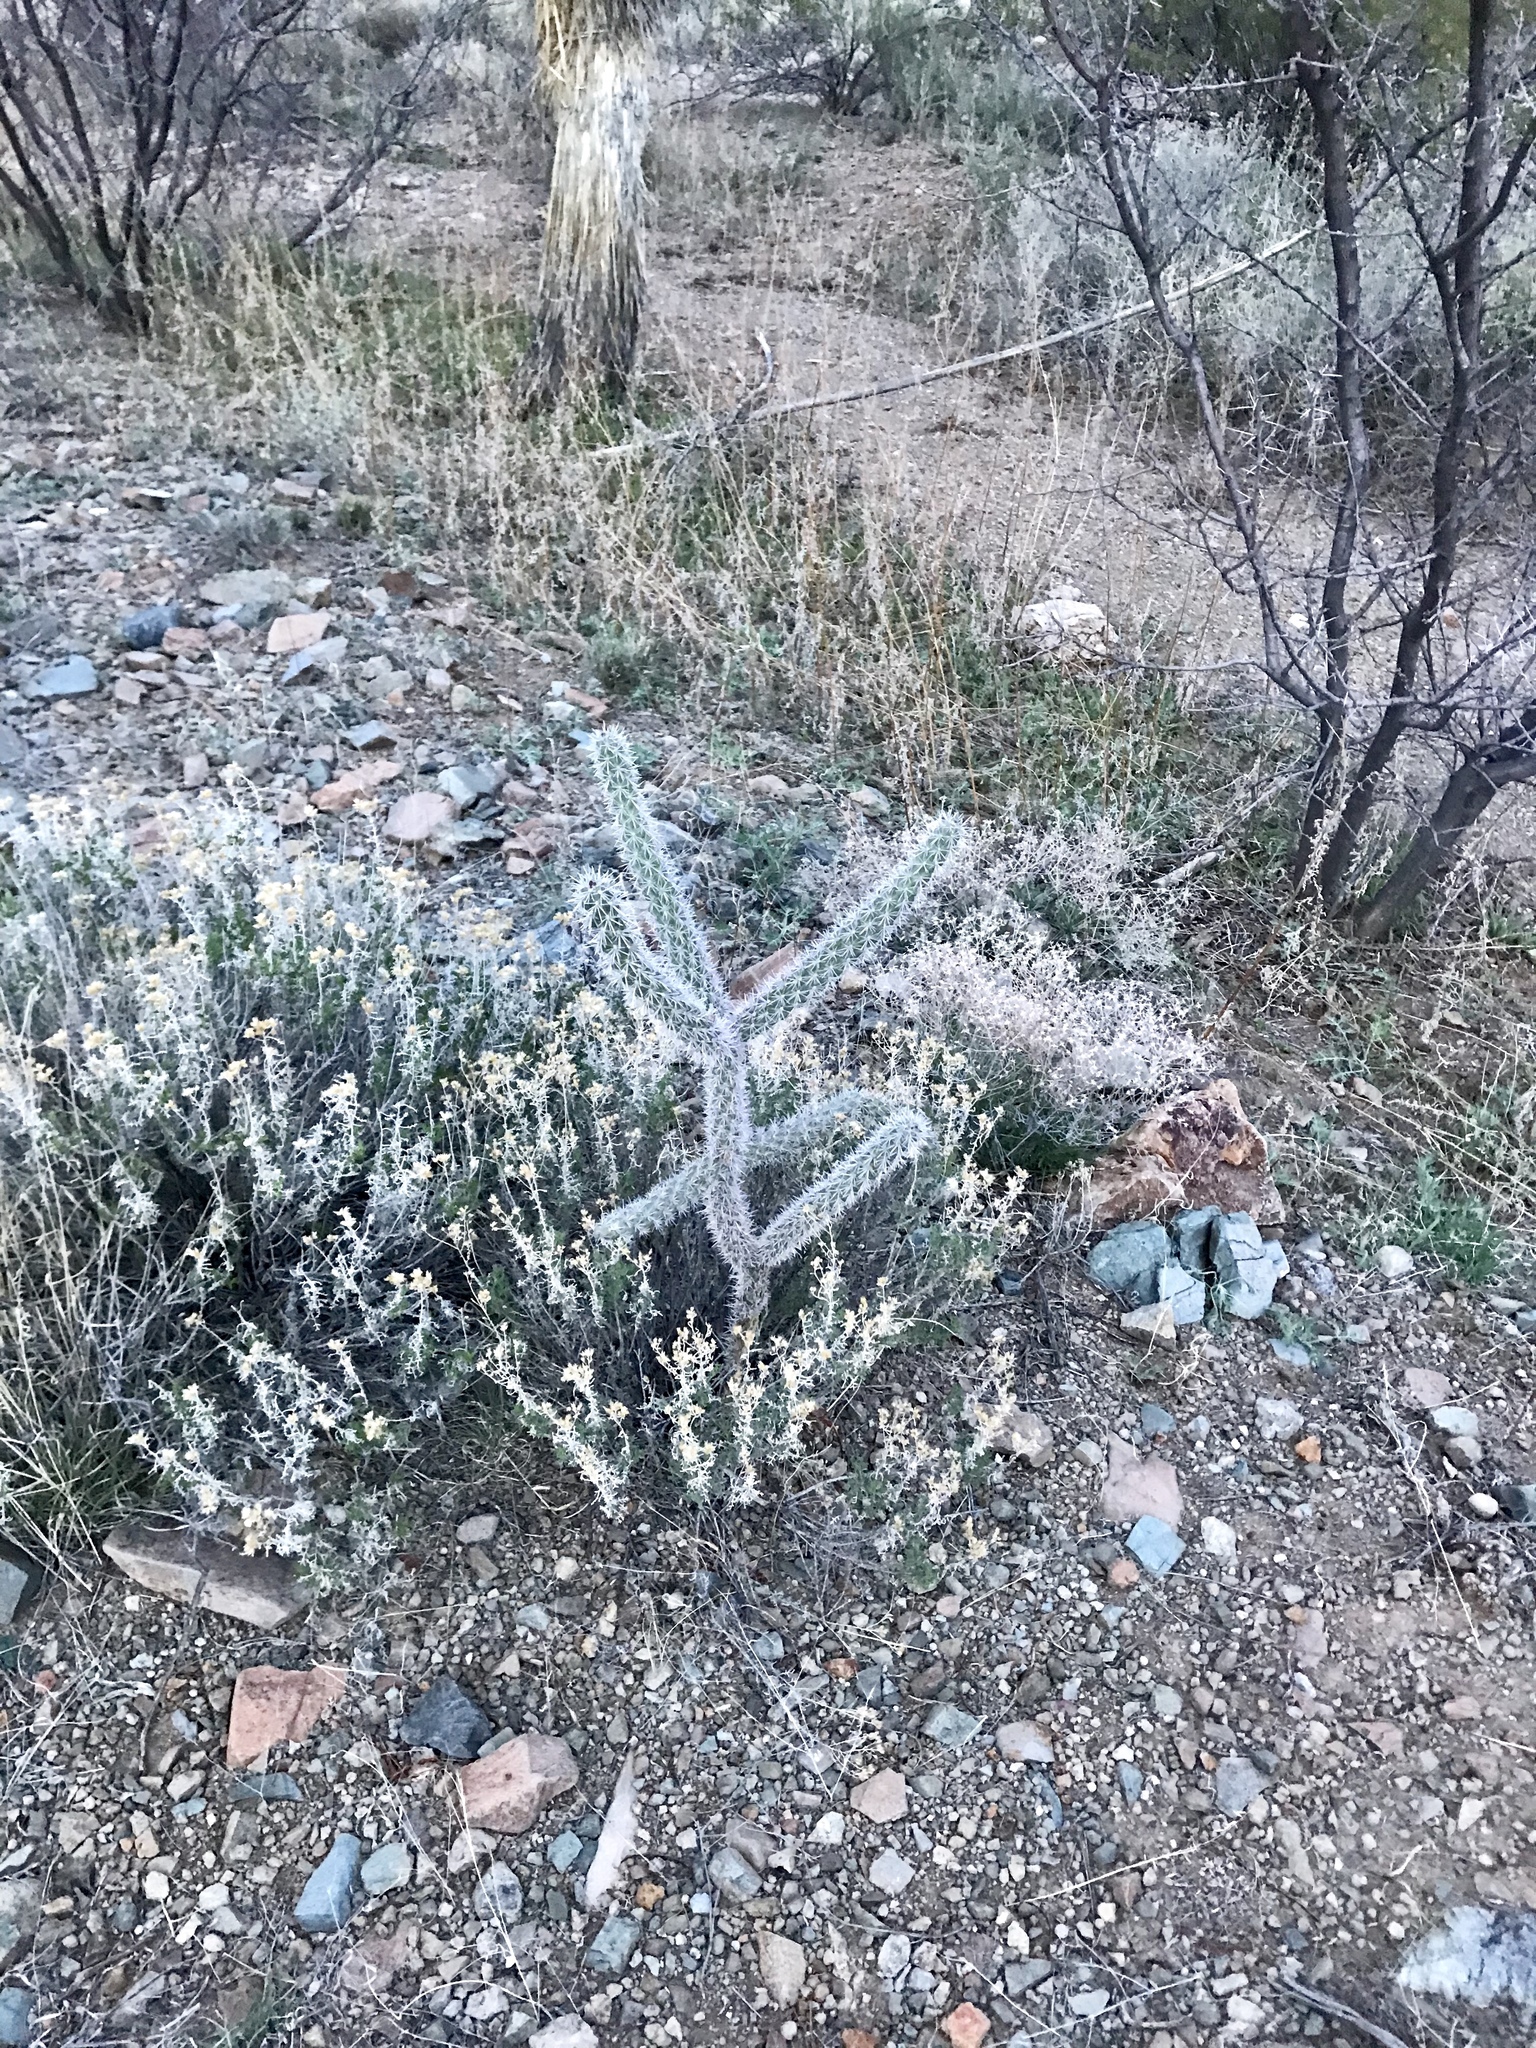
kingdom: Plantae
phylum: Tracheophyta
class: Magnoliopsida
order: Caryophyllales
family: Cactaceae
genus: Cylindropuntia
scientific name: Cylindropuntia imbricata
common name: Candelabrum cactus
